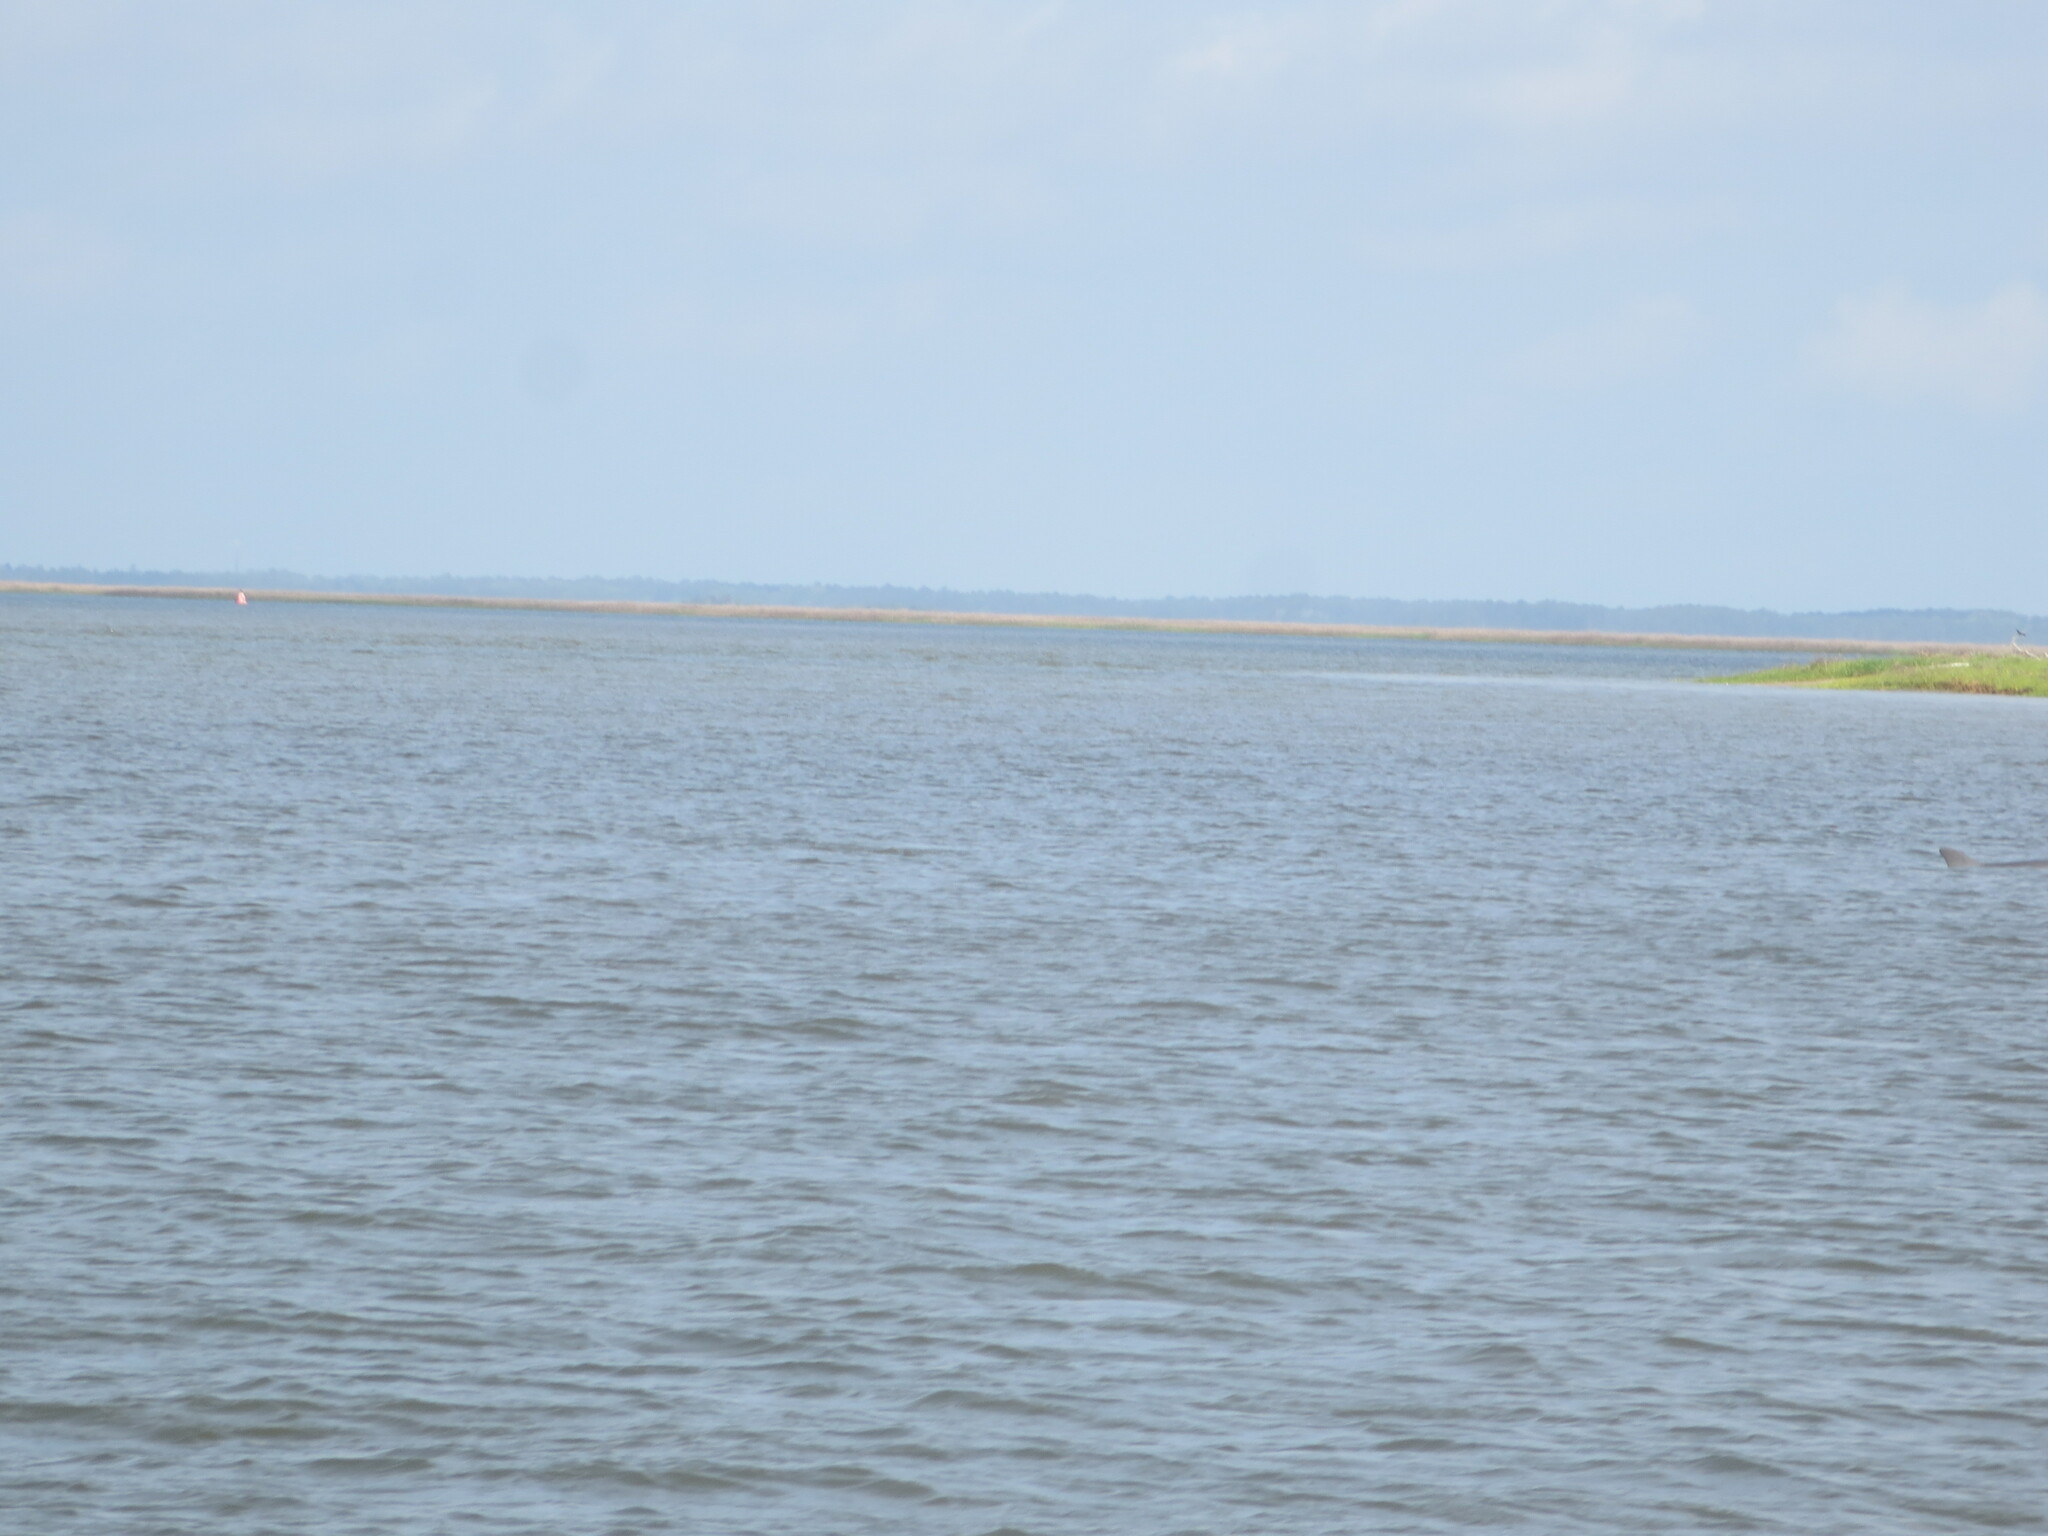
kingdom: Animalia
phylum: Chordata
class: Mammalia
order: Cetacea
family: Delphinidae
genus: Tursiops
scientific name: Tursiops truncatus
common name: Bottlenose dolphin
